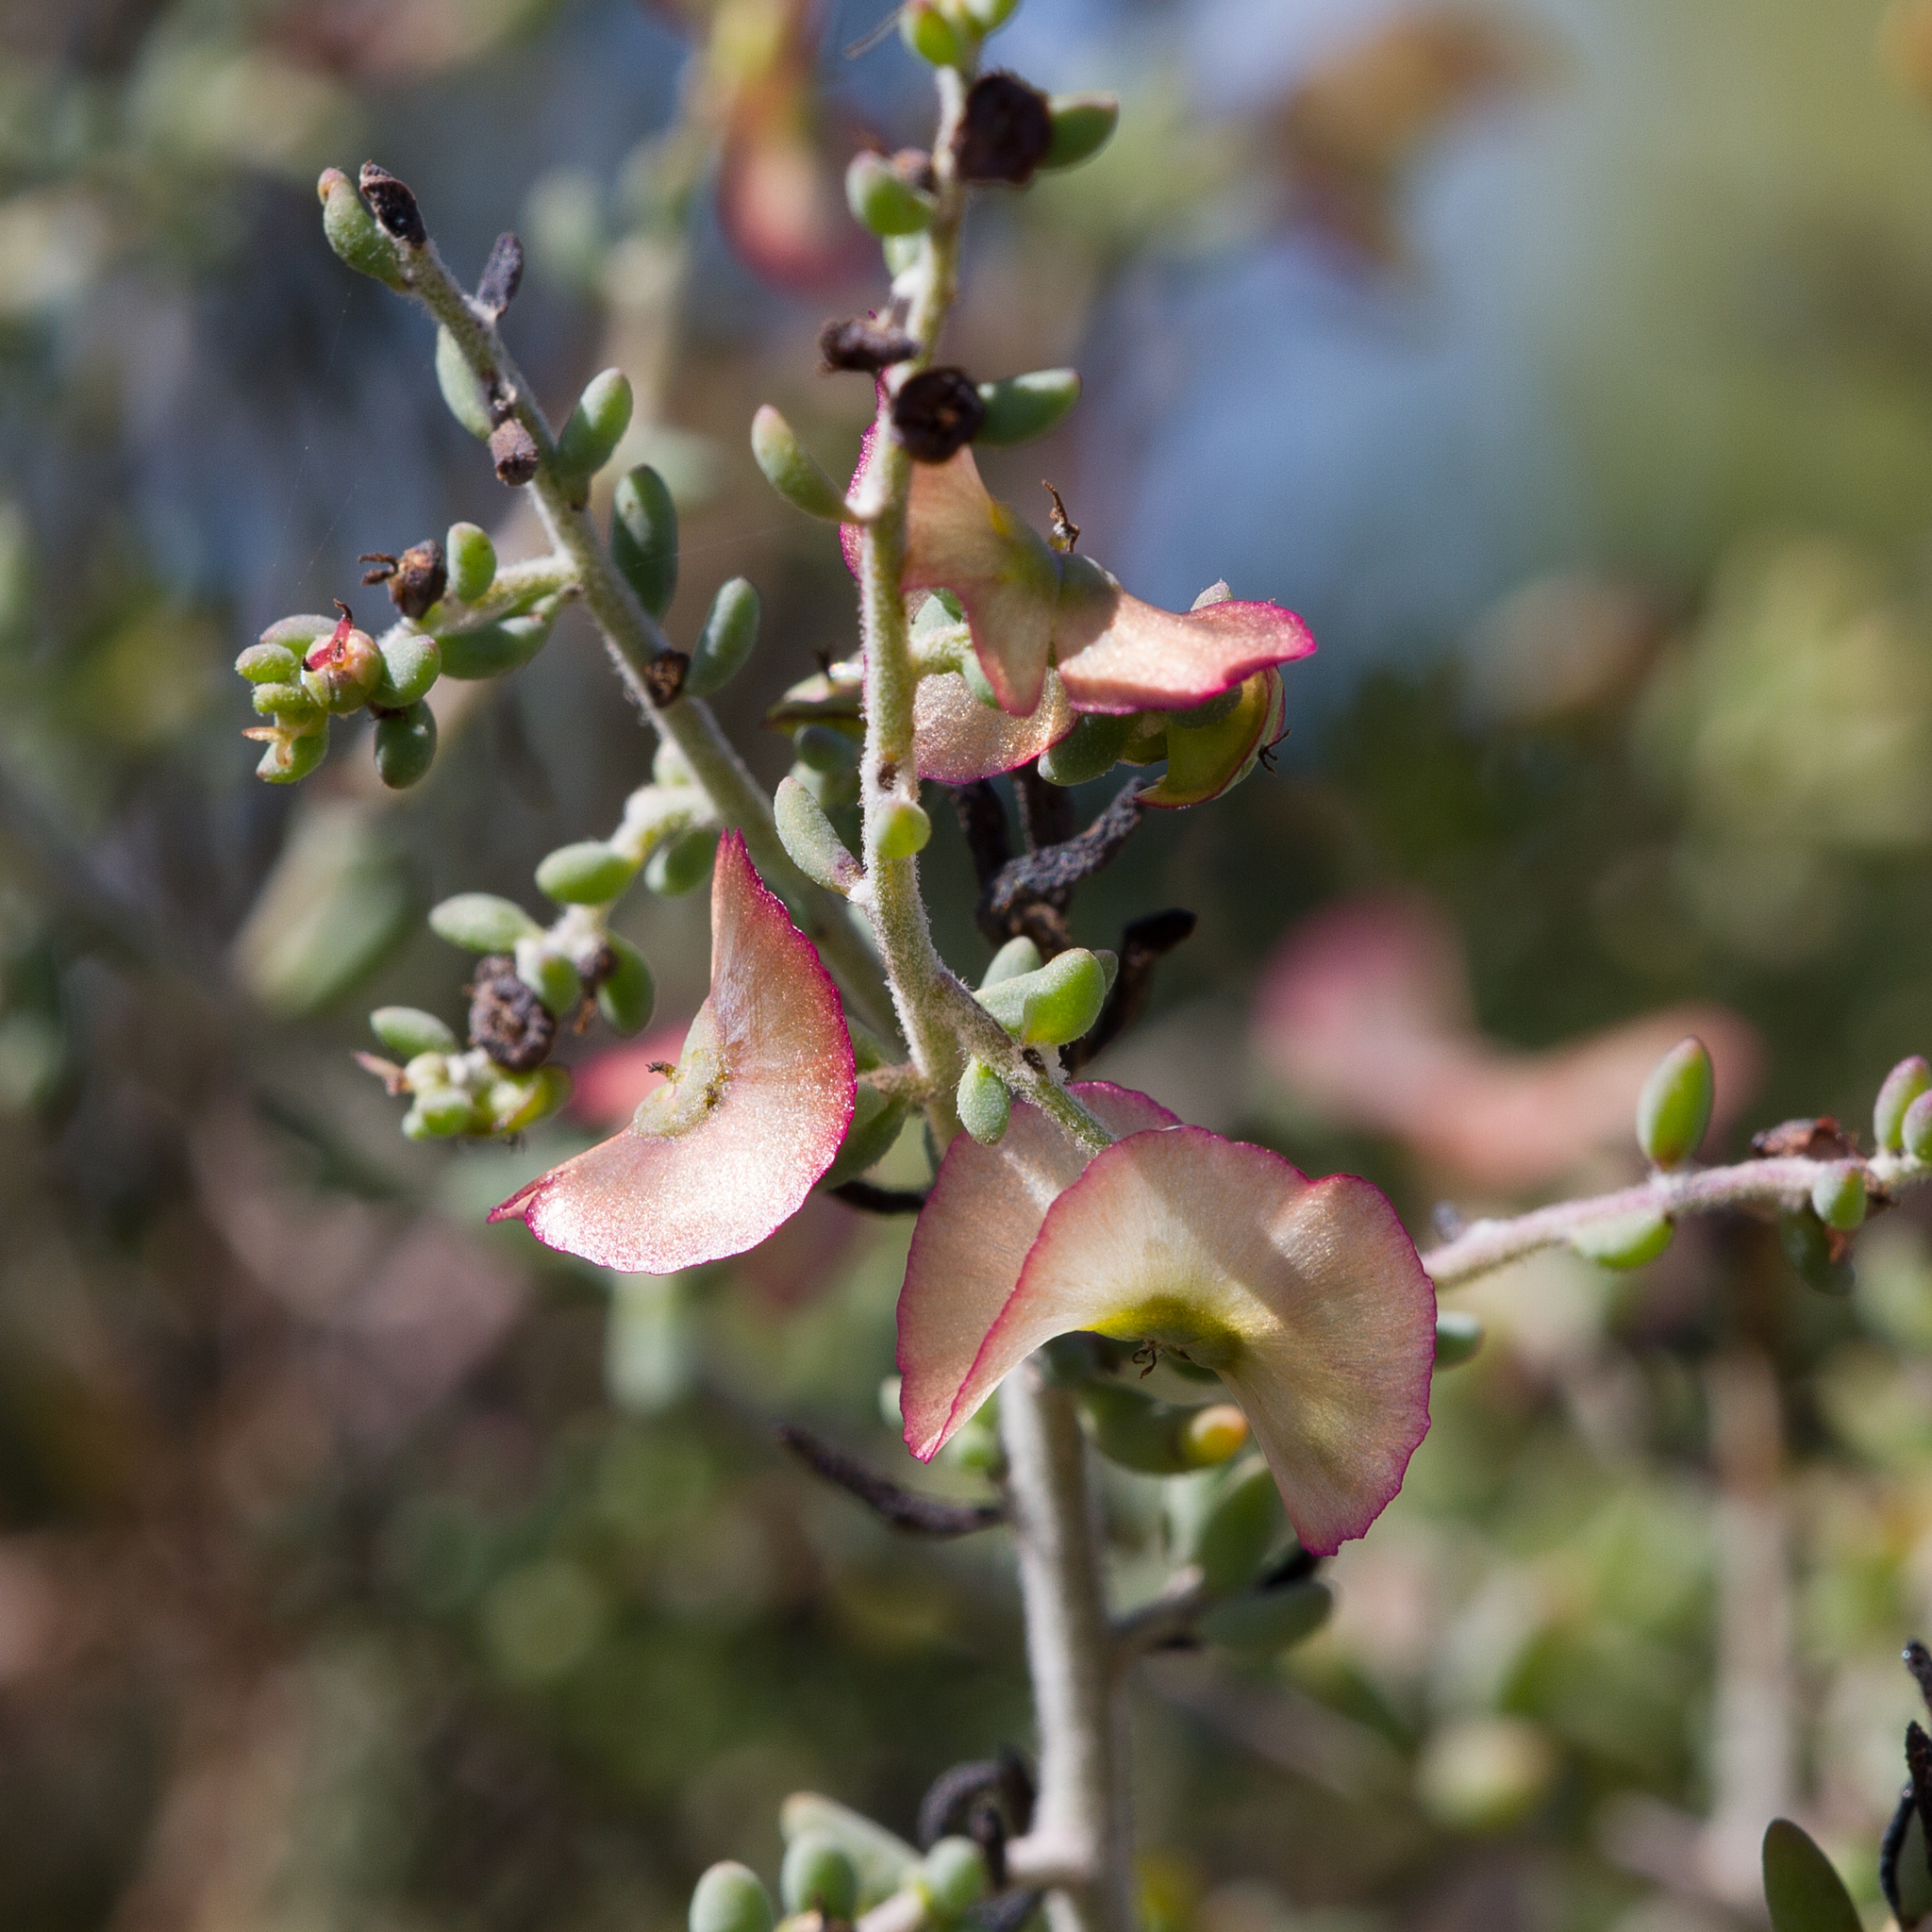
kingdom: Plantae
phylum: Tracheophyta
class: Magnoliopsida
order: Caryophyllales
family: Amaranthaceae
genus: Maireana
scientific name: Maireana rohrlachii
